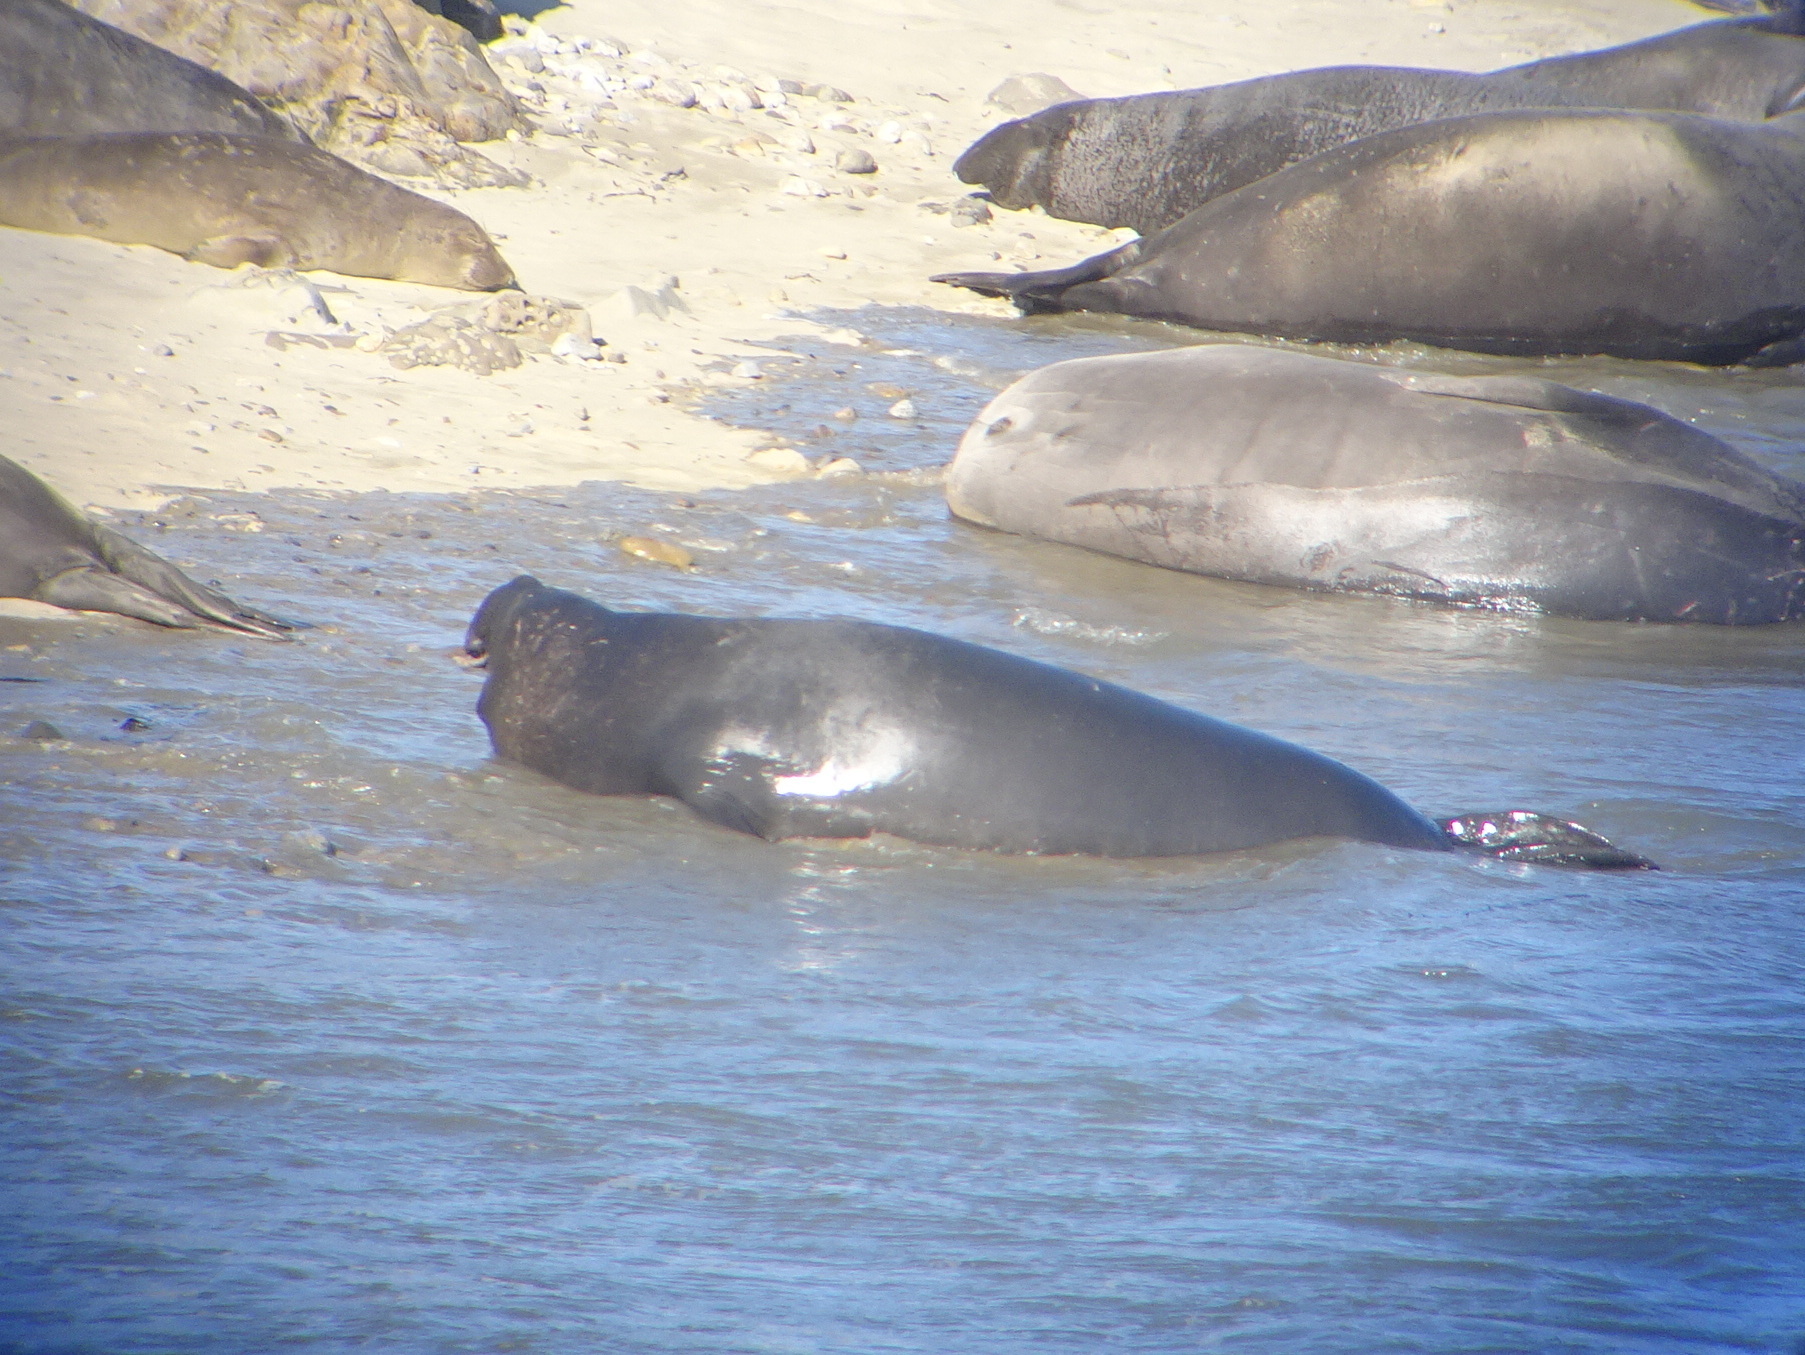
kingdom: Animalia
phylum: Chordata
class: Mammalia
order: Carnivora
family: Phocidae
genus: Mirounga
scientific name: Mirounga angustirostris
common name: Northern elephant seal
